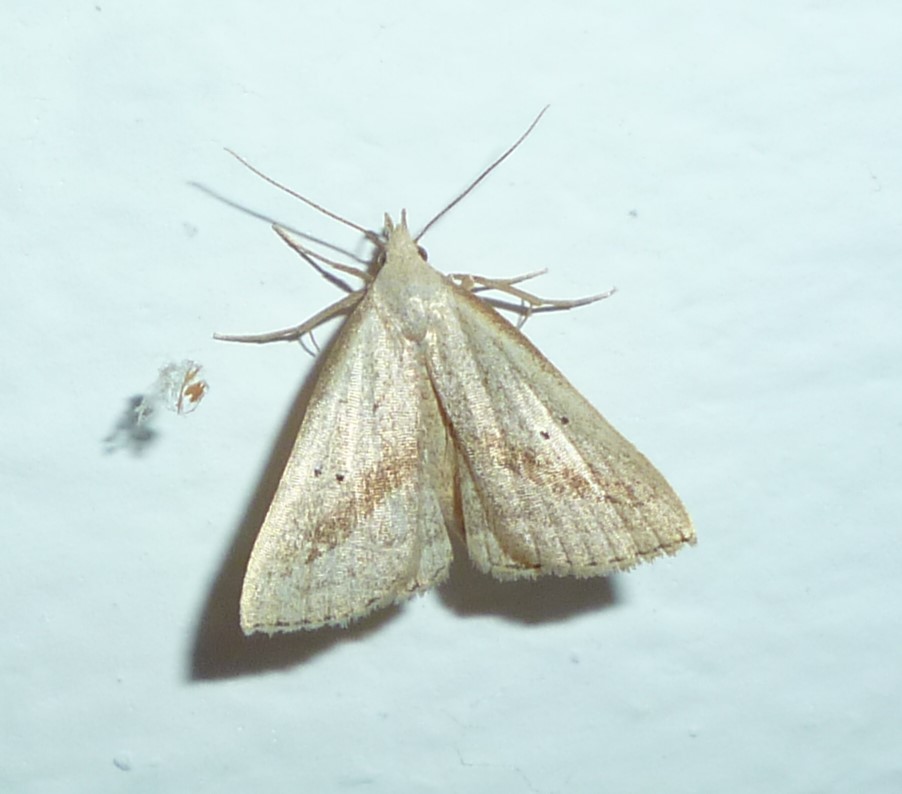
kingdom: Animalia
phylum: Arthropoda
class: Insecta
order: Lepidoptera
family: Erebidae
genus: Macrochilo
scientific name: Macrochilo hypocritalis
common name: Twin-dotted owlet
